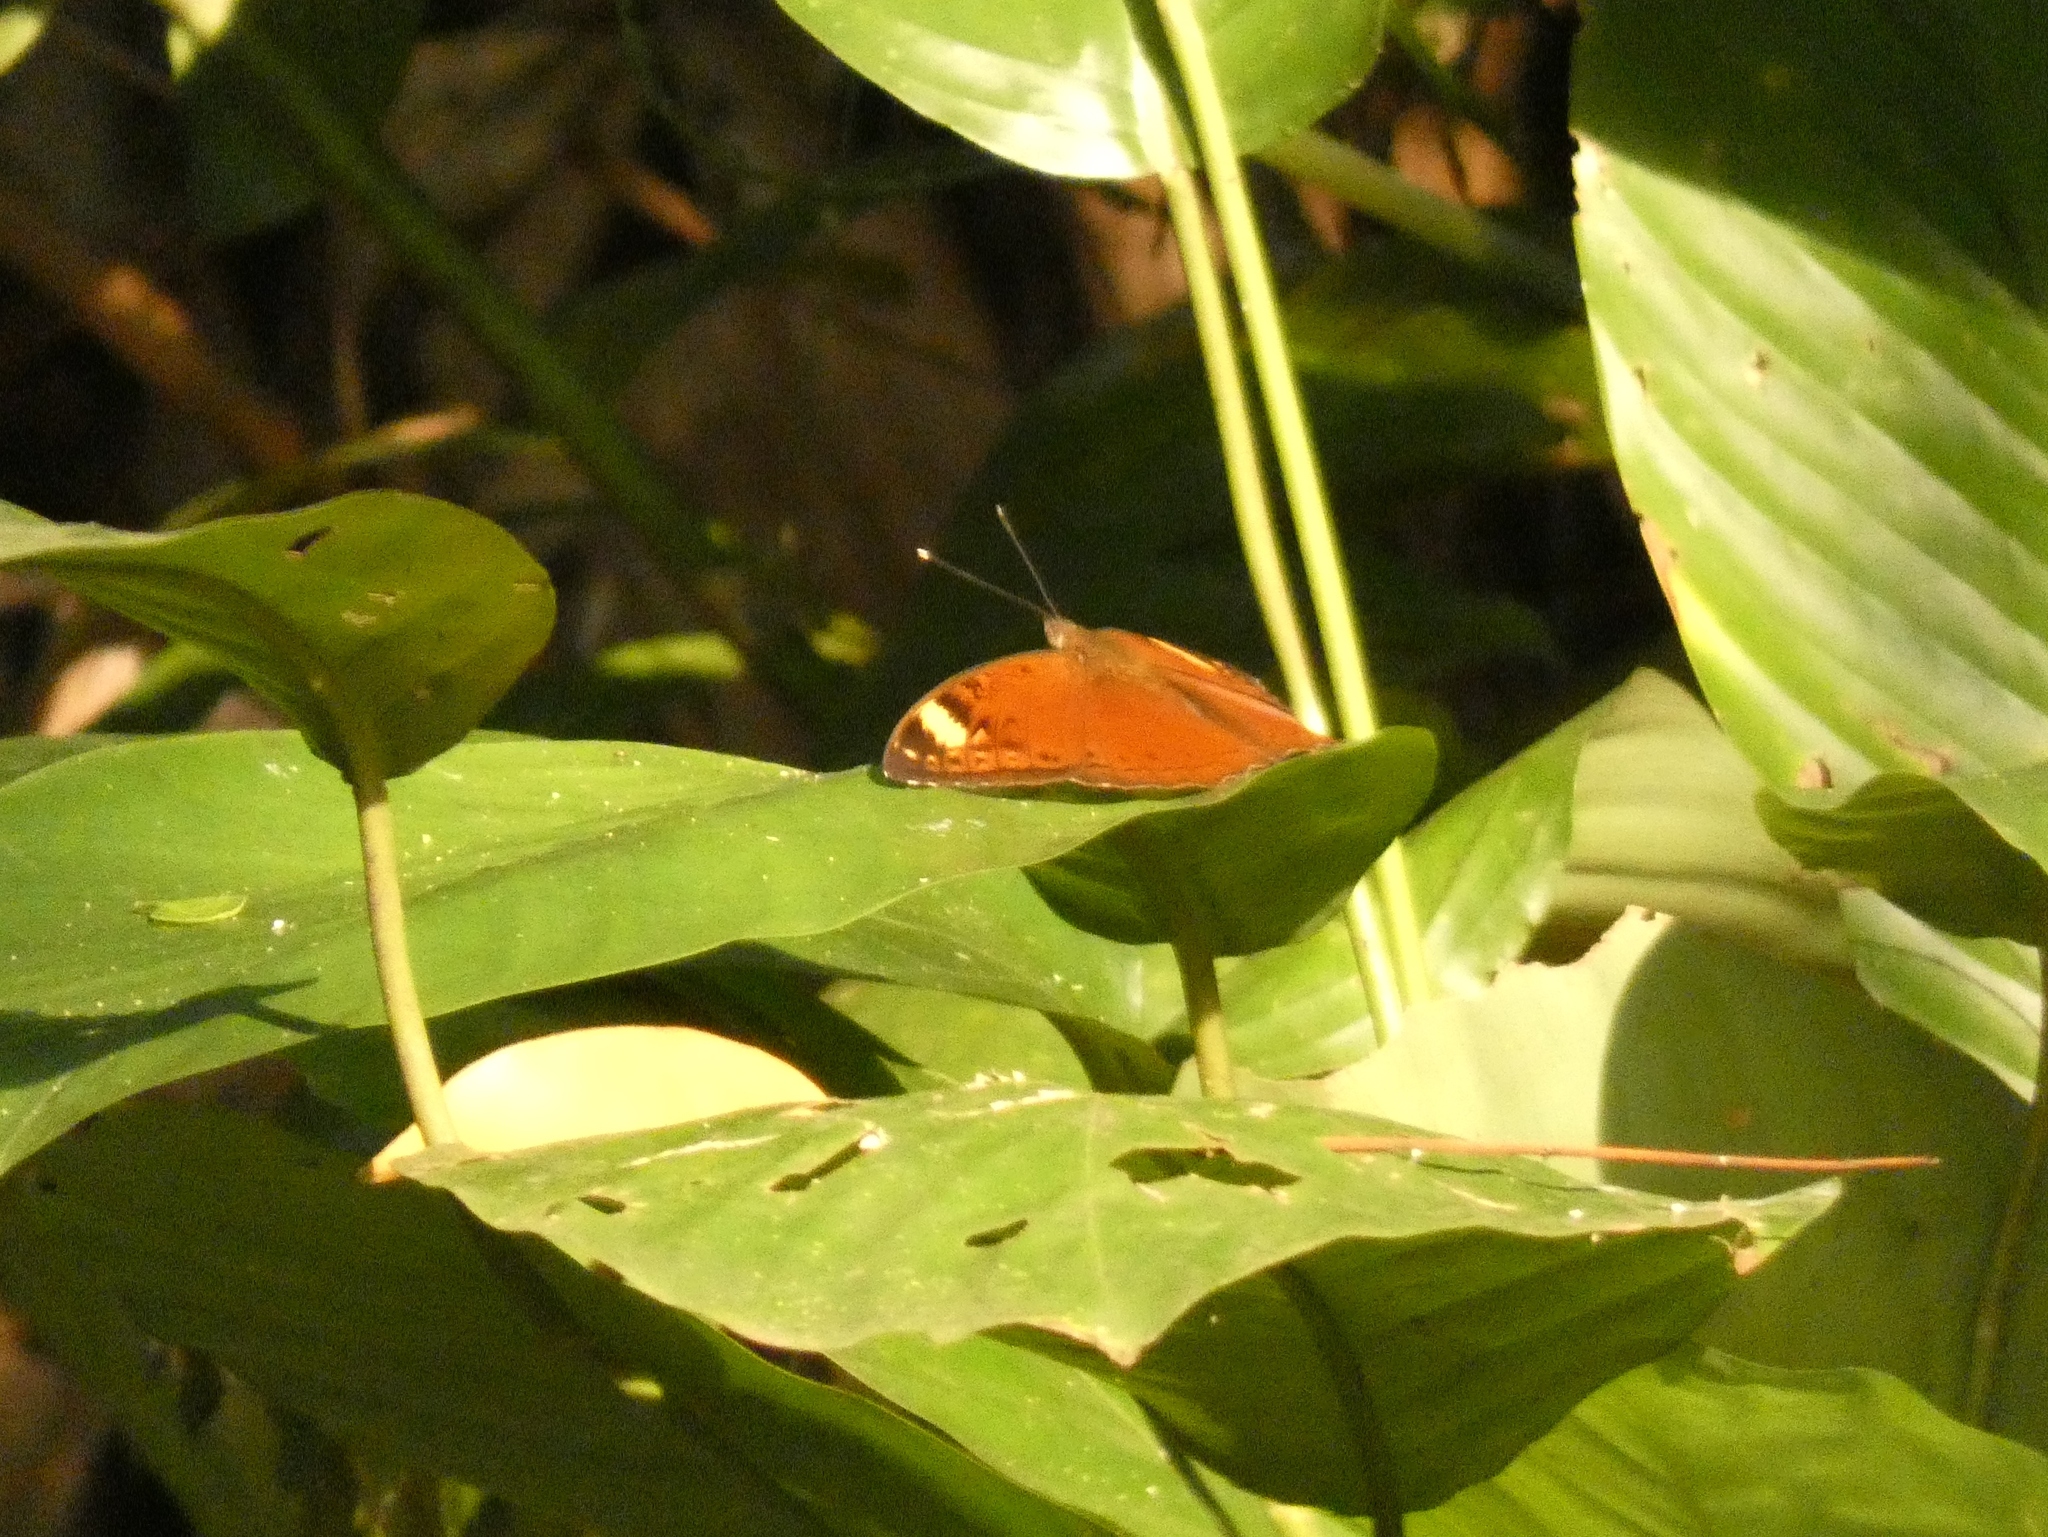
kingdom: Animalia
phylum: Arthropoda
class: Insecta
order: Lepidoptera
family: Nymphalidae
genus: Bebearia
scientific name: Bebearia cocalia
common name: Common palm forester
